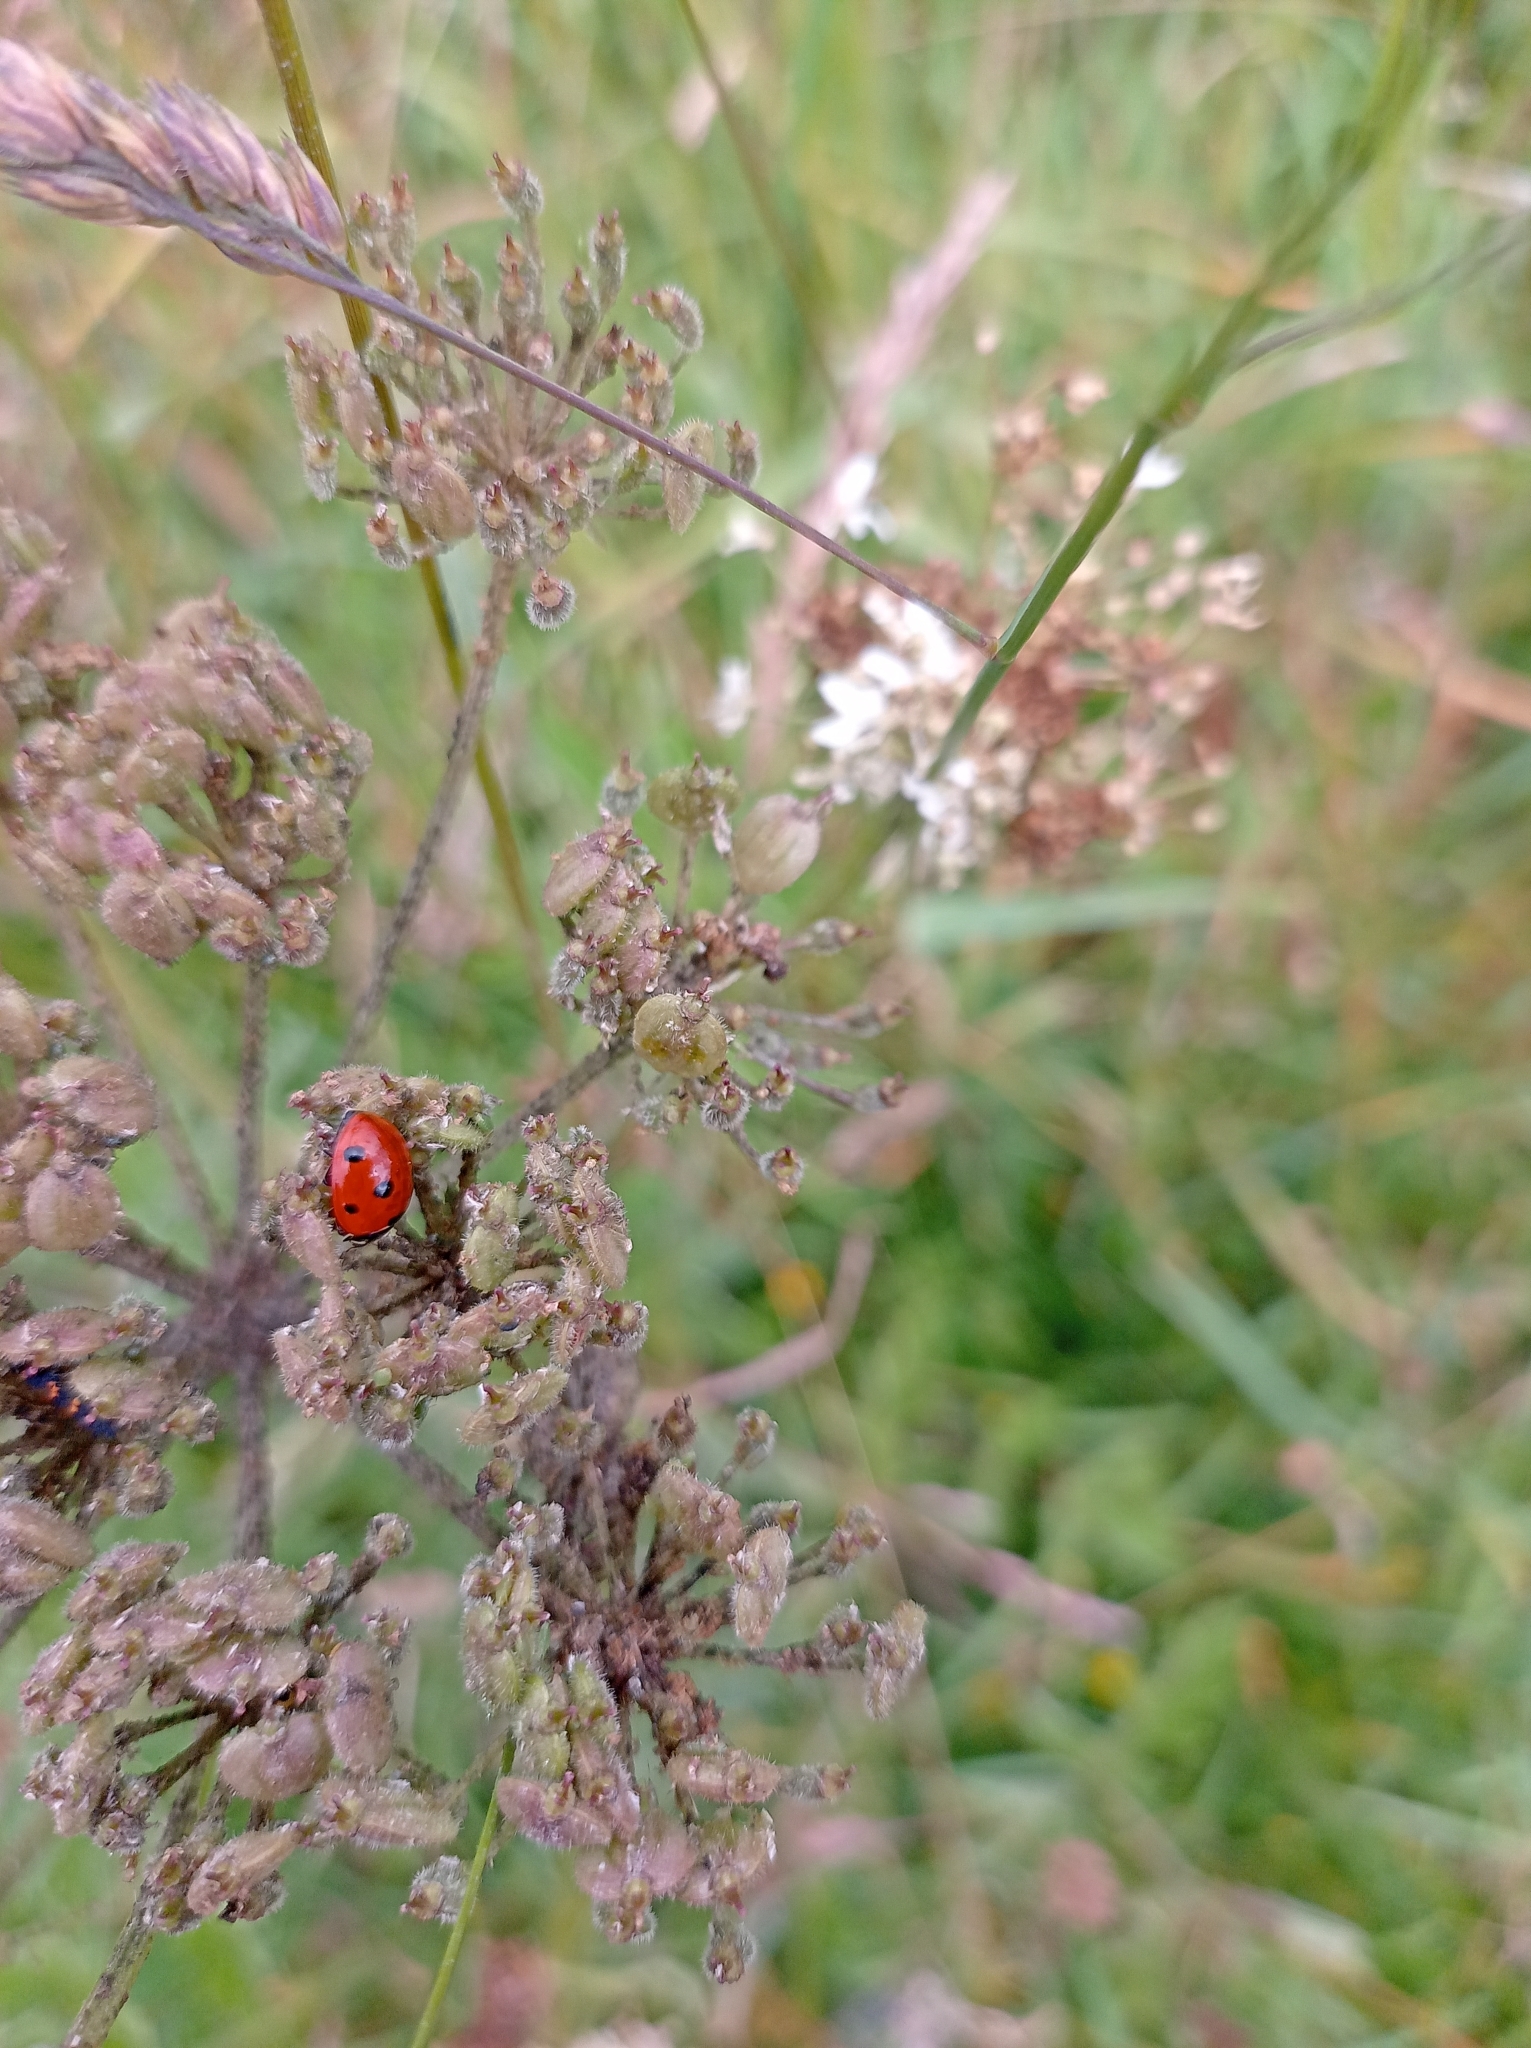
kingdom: Animalia
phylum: Arthropoda
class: Insecta
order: Coleoptera
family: Coccinellidae
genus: Coccinella
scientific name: Coccinella septempunctata
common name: Sevenspotted lady beetle
